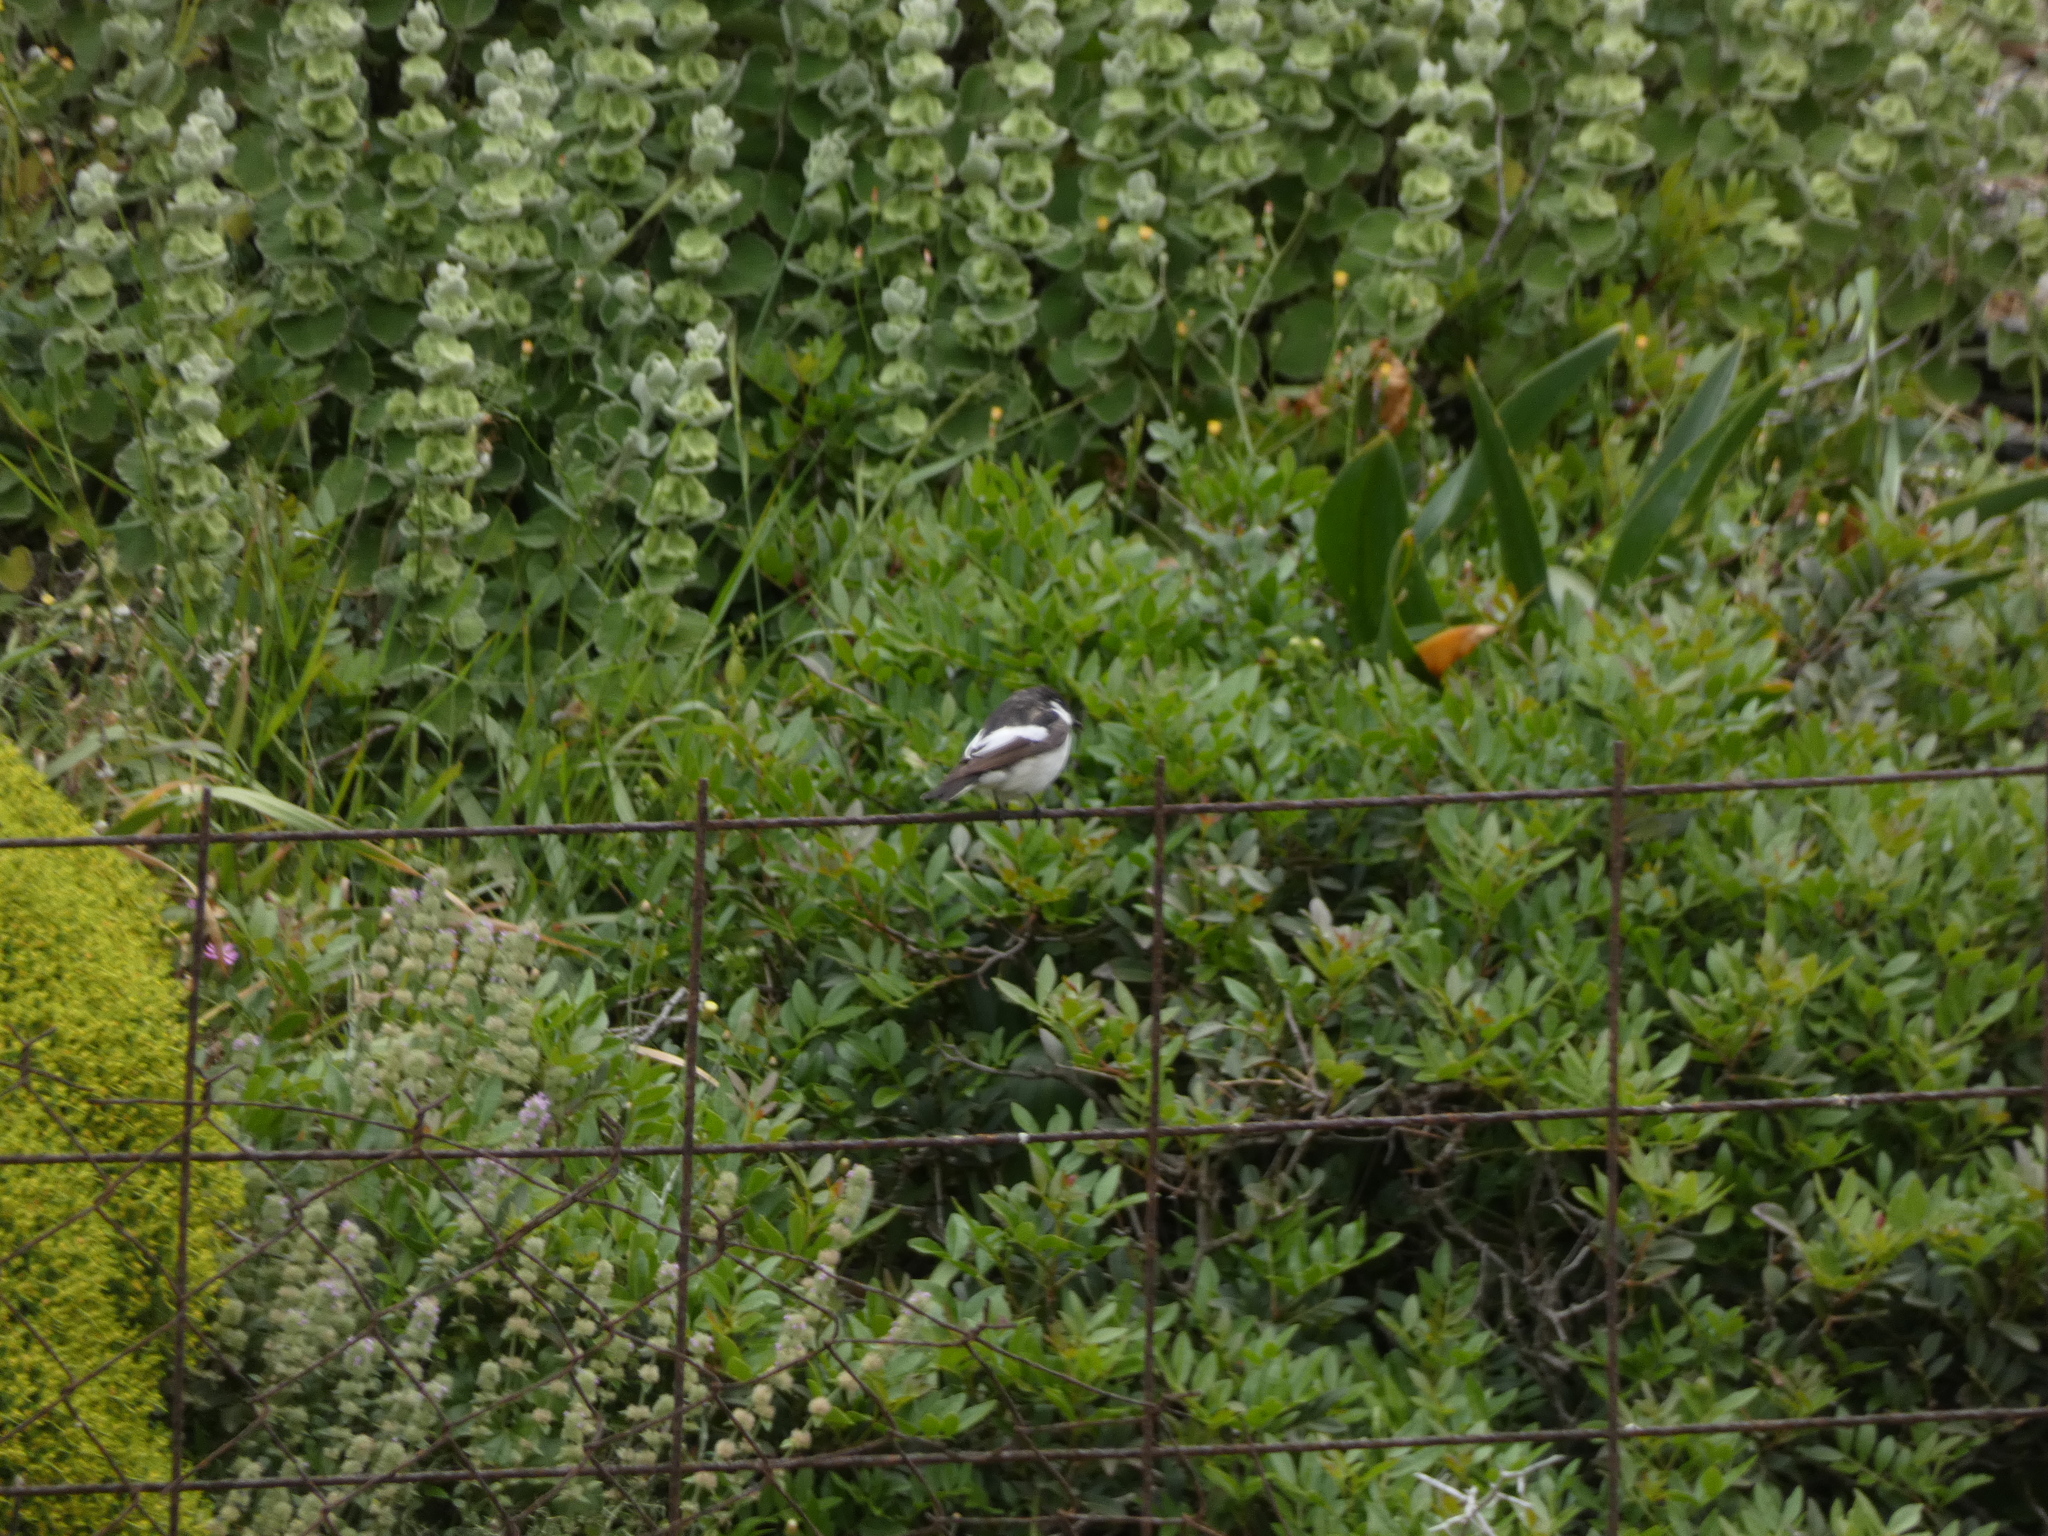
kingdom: Animalia
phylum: Chordata
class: Aves
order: Passeriformes
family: Muscicapidae
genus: Ficedula
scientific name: Ficedula hypoleuca
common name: European pied flycatcher
